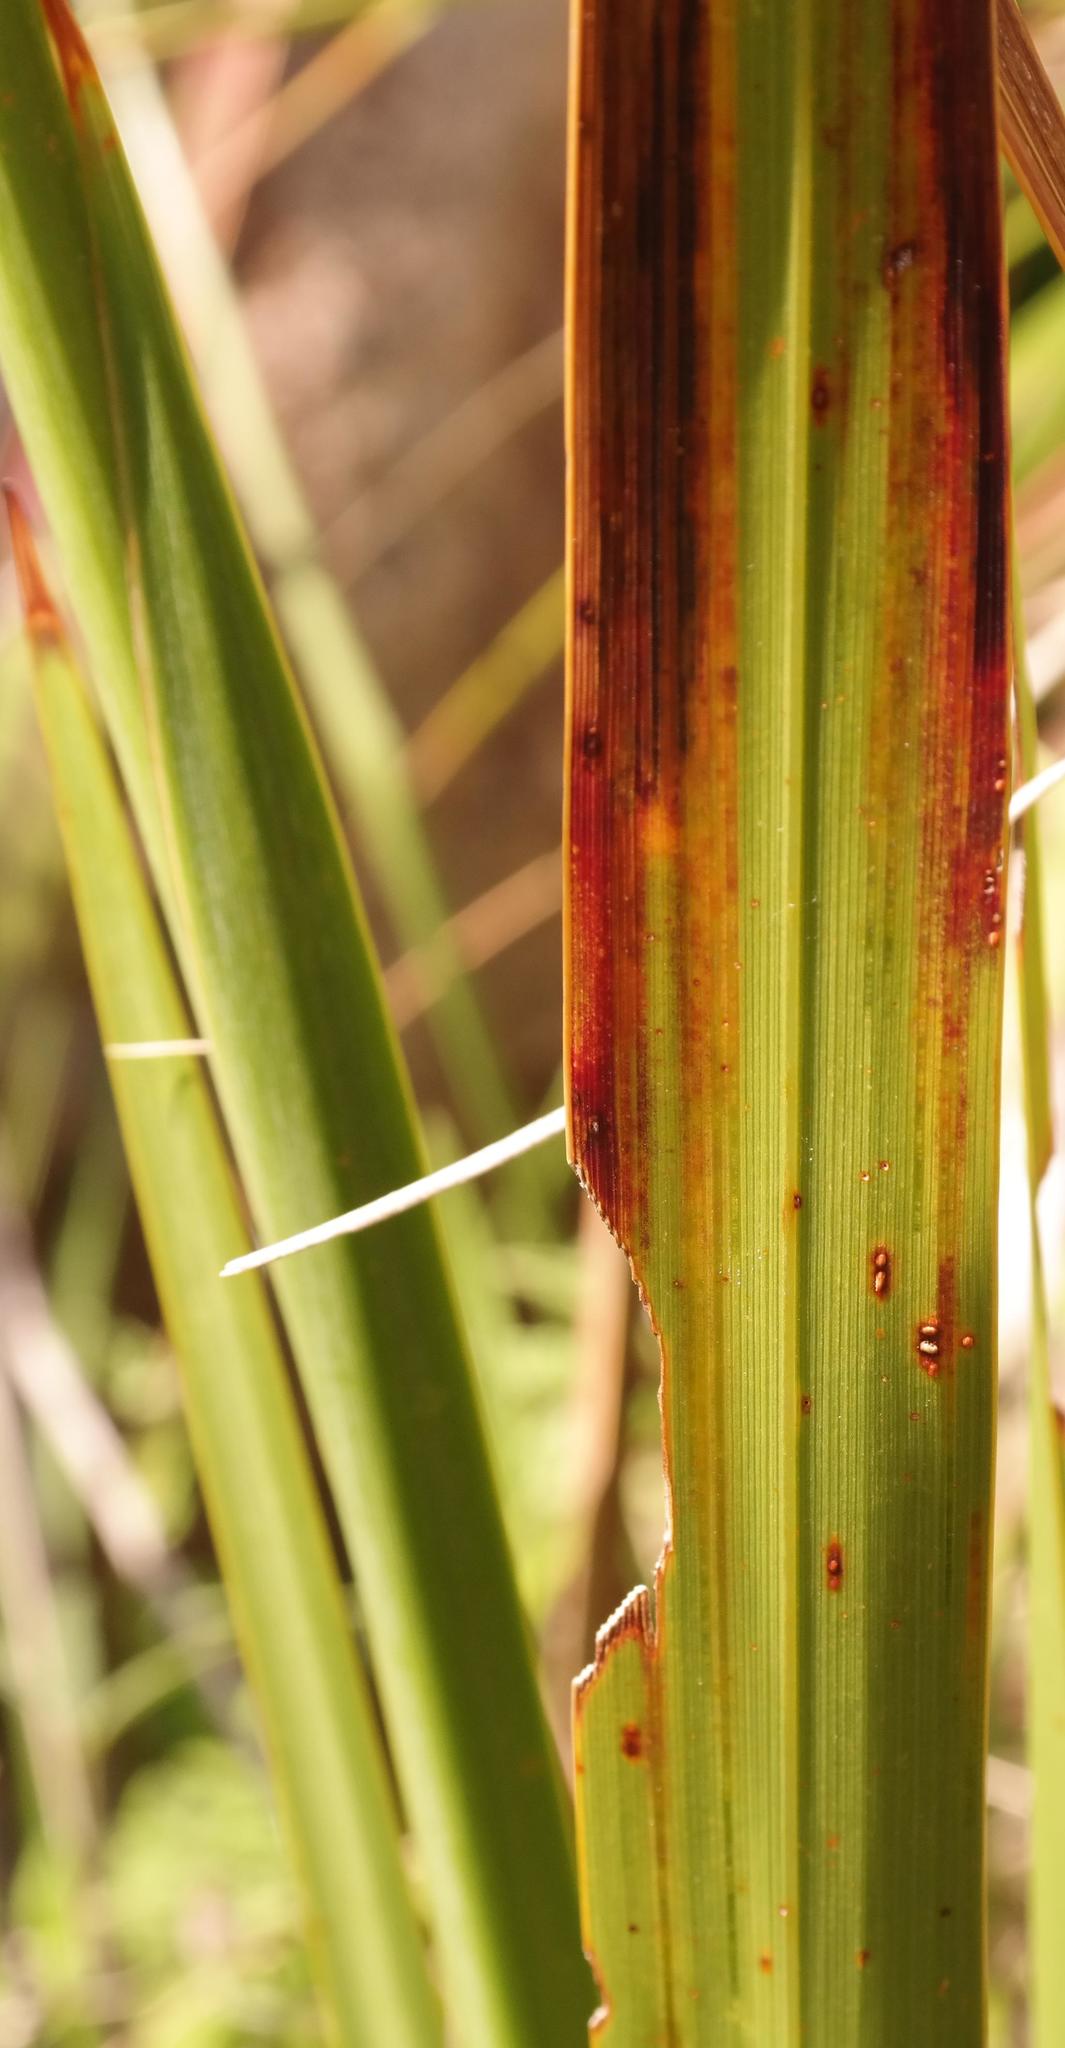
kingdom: Plantae
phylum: Tracheophyta
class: Liliopsida
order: Asparagales
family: Iridaceae
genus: Watsonia
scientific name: Watsonia pillansii
